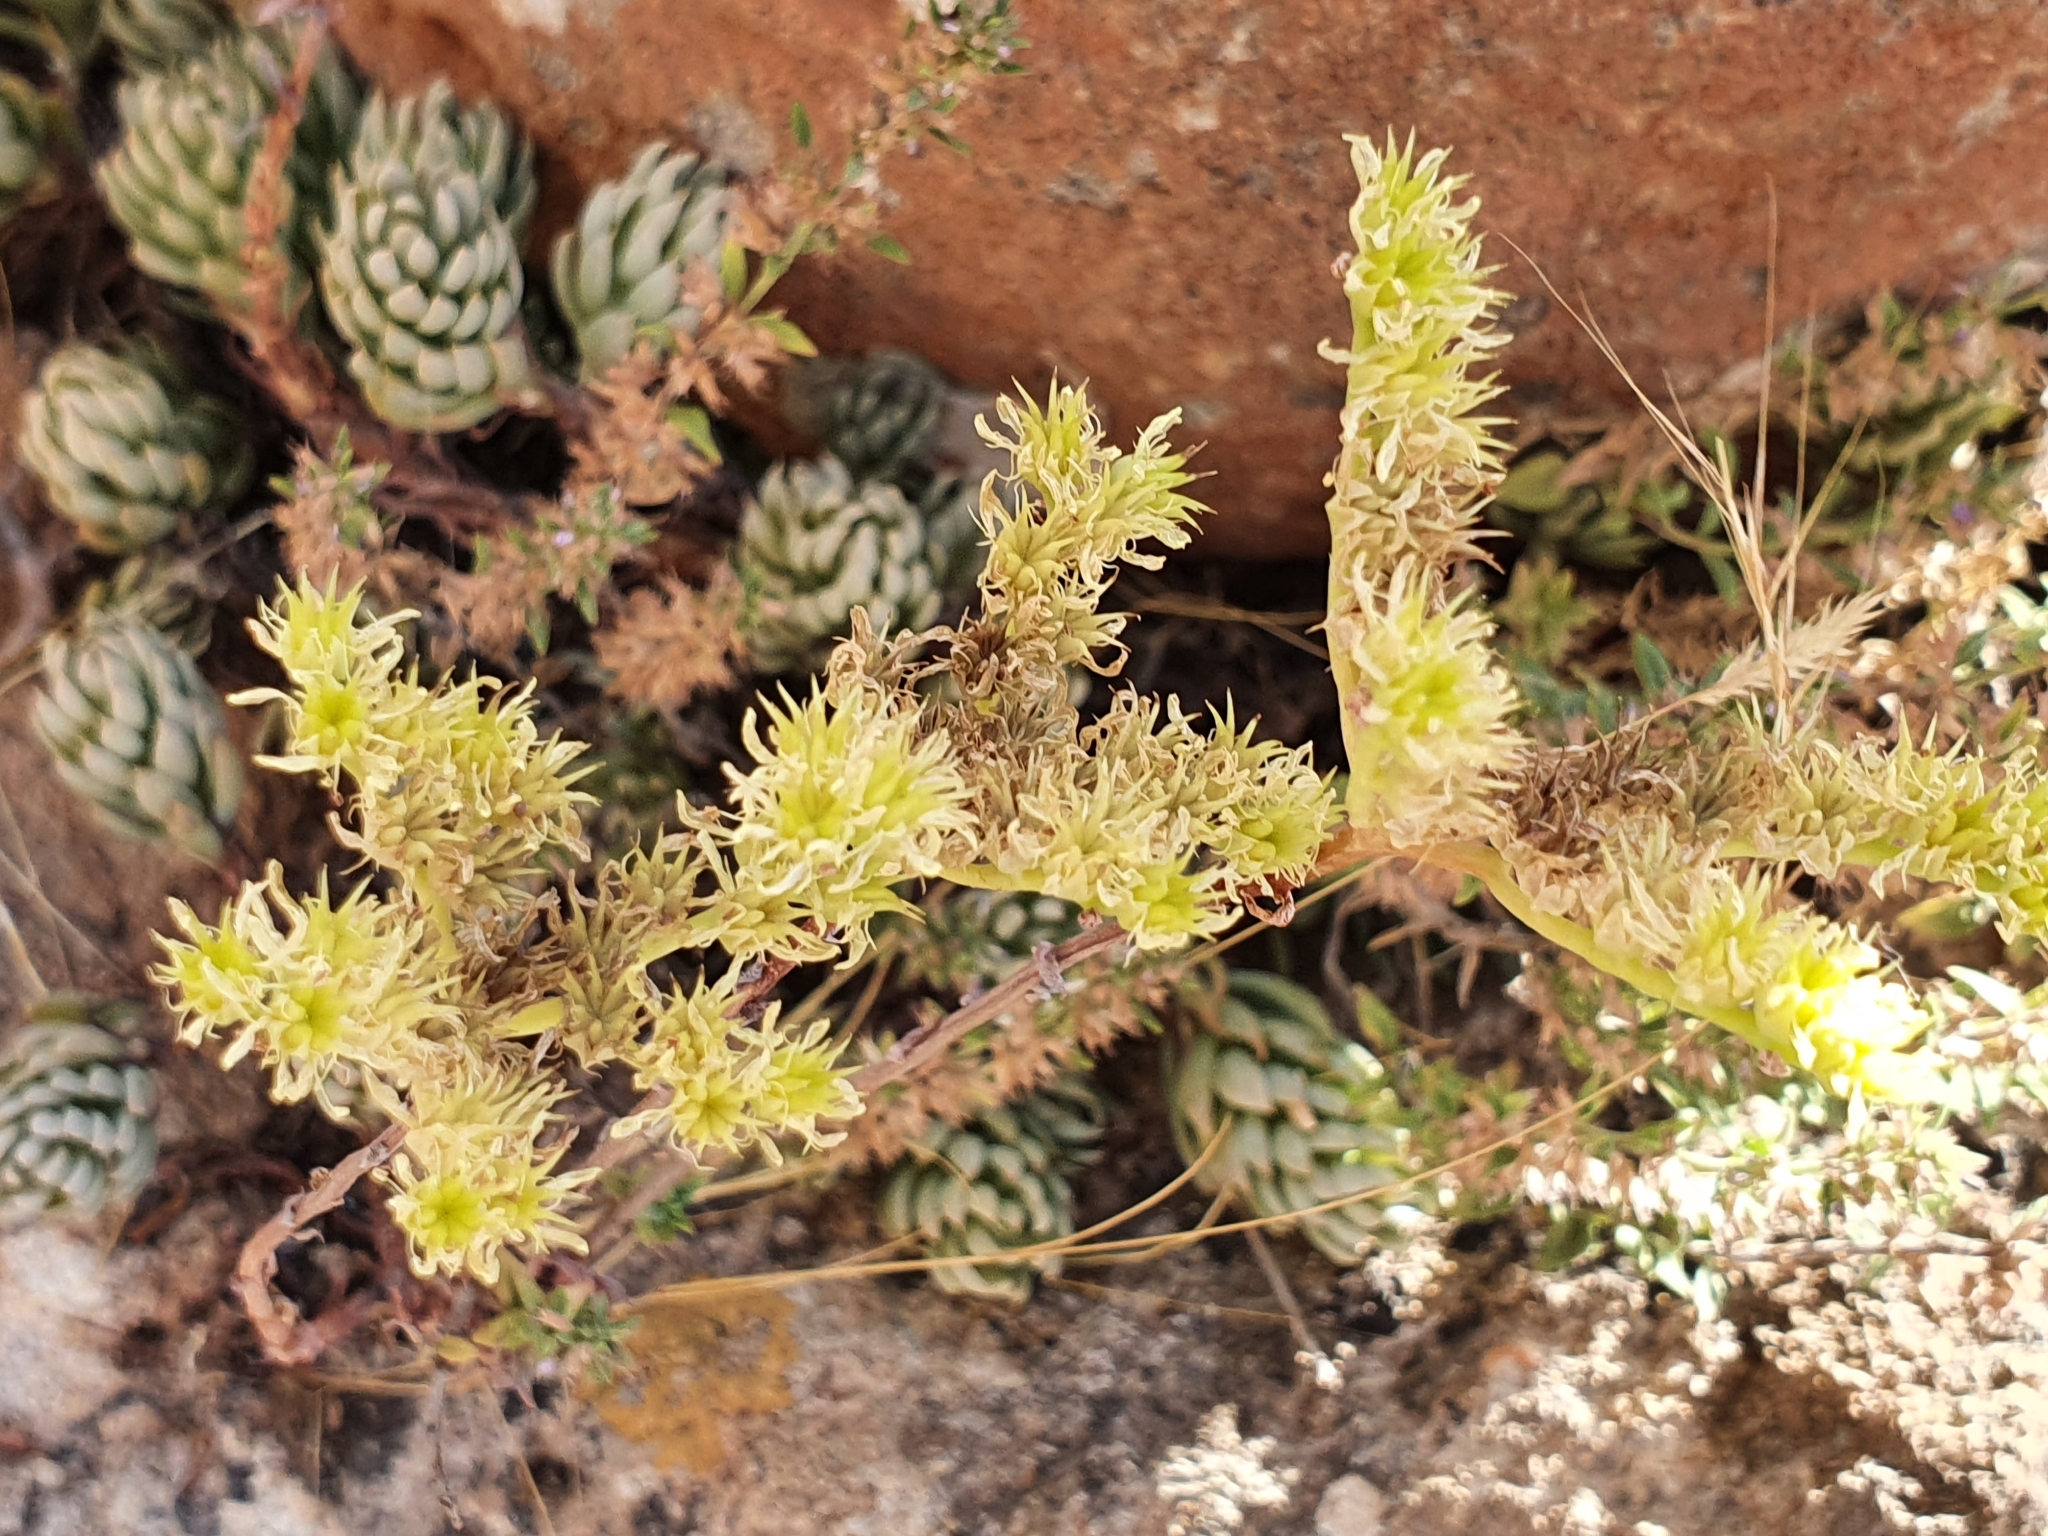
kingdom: Plantae
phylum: Tracheophyta
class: Magnoliopsida
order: Saxifragales
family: Crassulaceae
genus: Petrosedum
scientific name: Petrosedum sediforme
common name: Pale stonecrop
